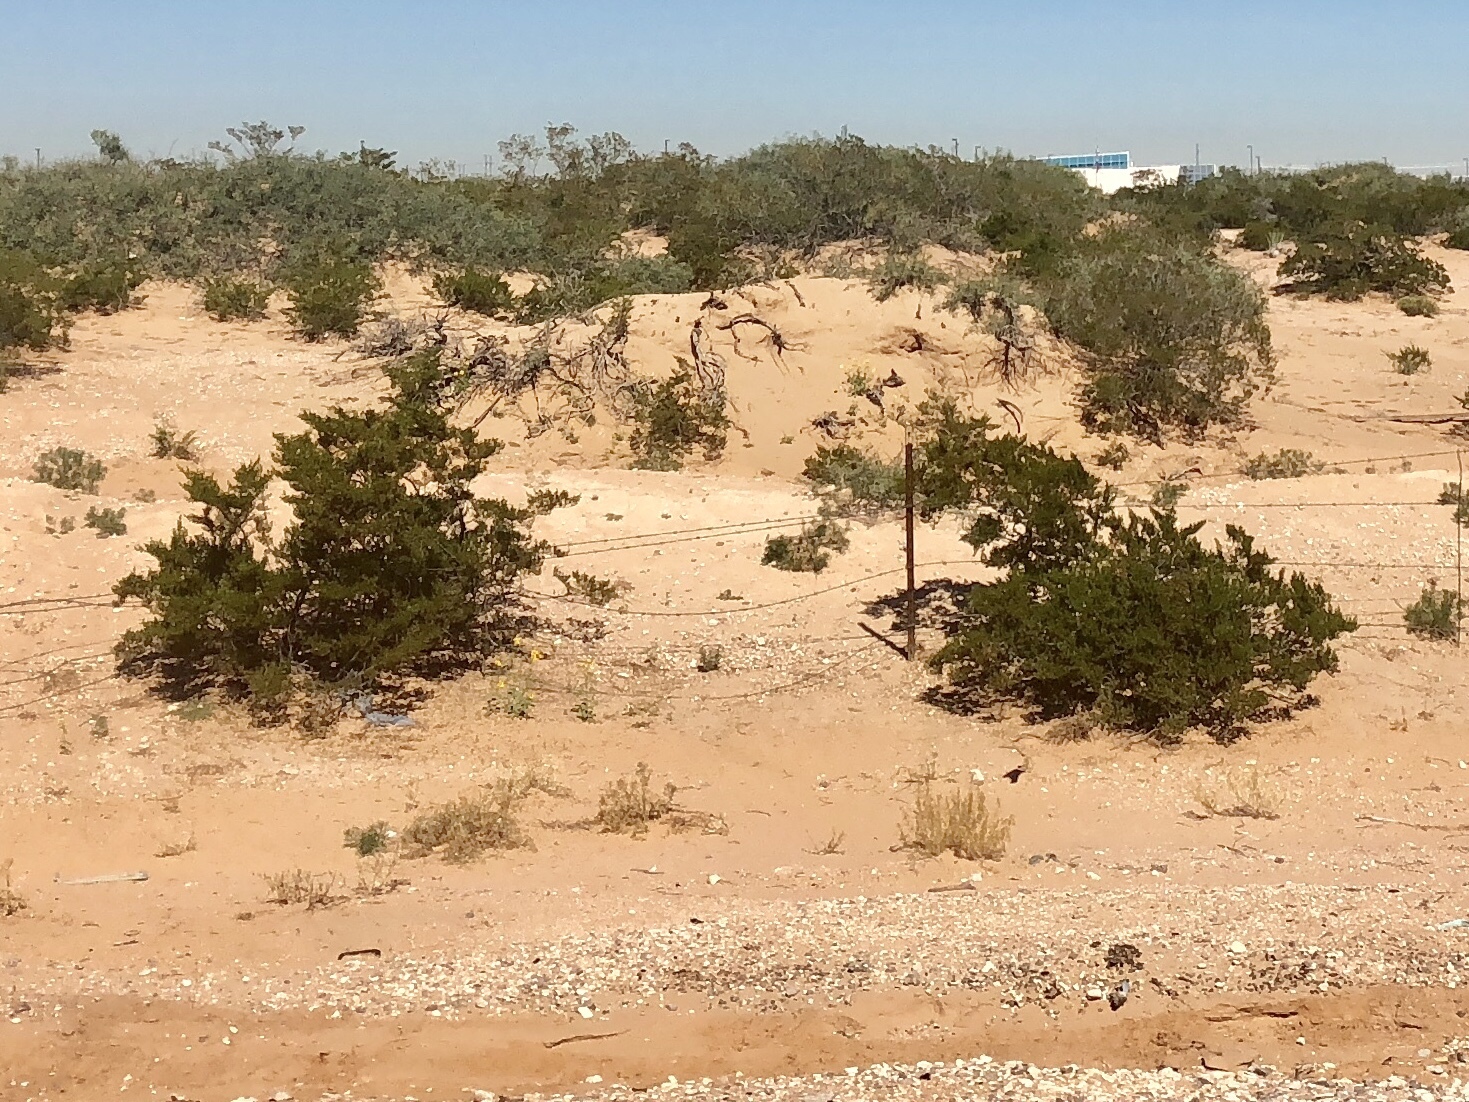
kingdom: Plantae
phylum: Tracheophyta
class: Magnoliopsida
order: Zygophyllales
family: Zygophyllaceae
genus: Larrea
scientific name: Larrea tridentata
